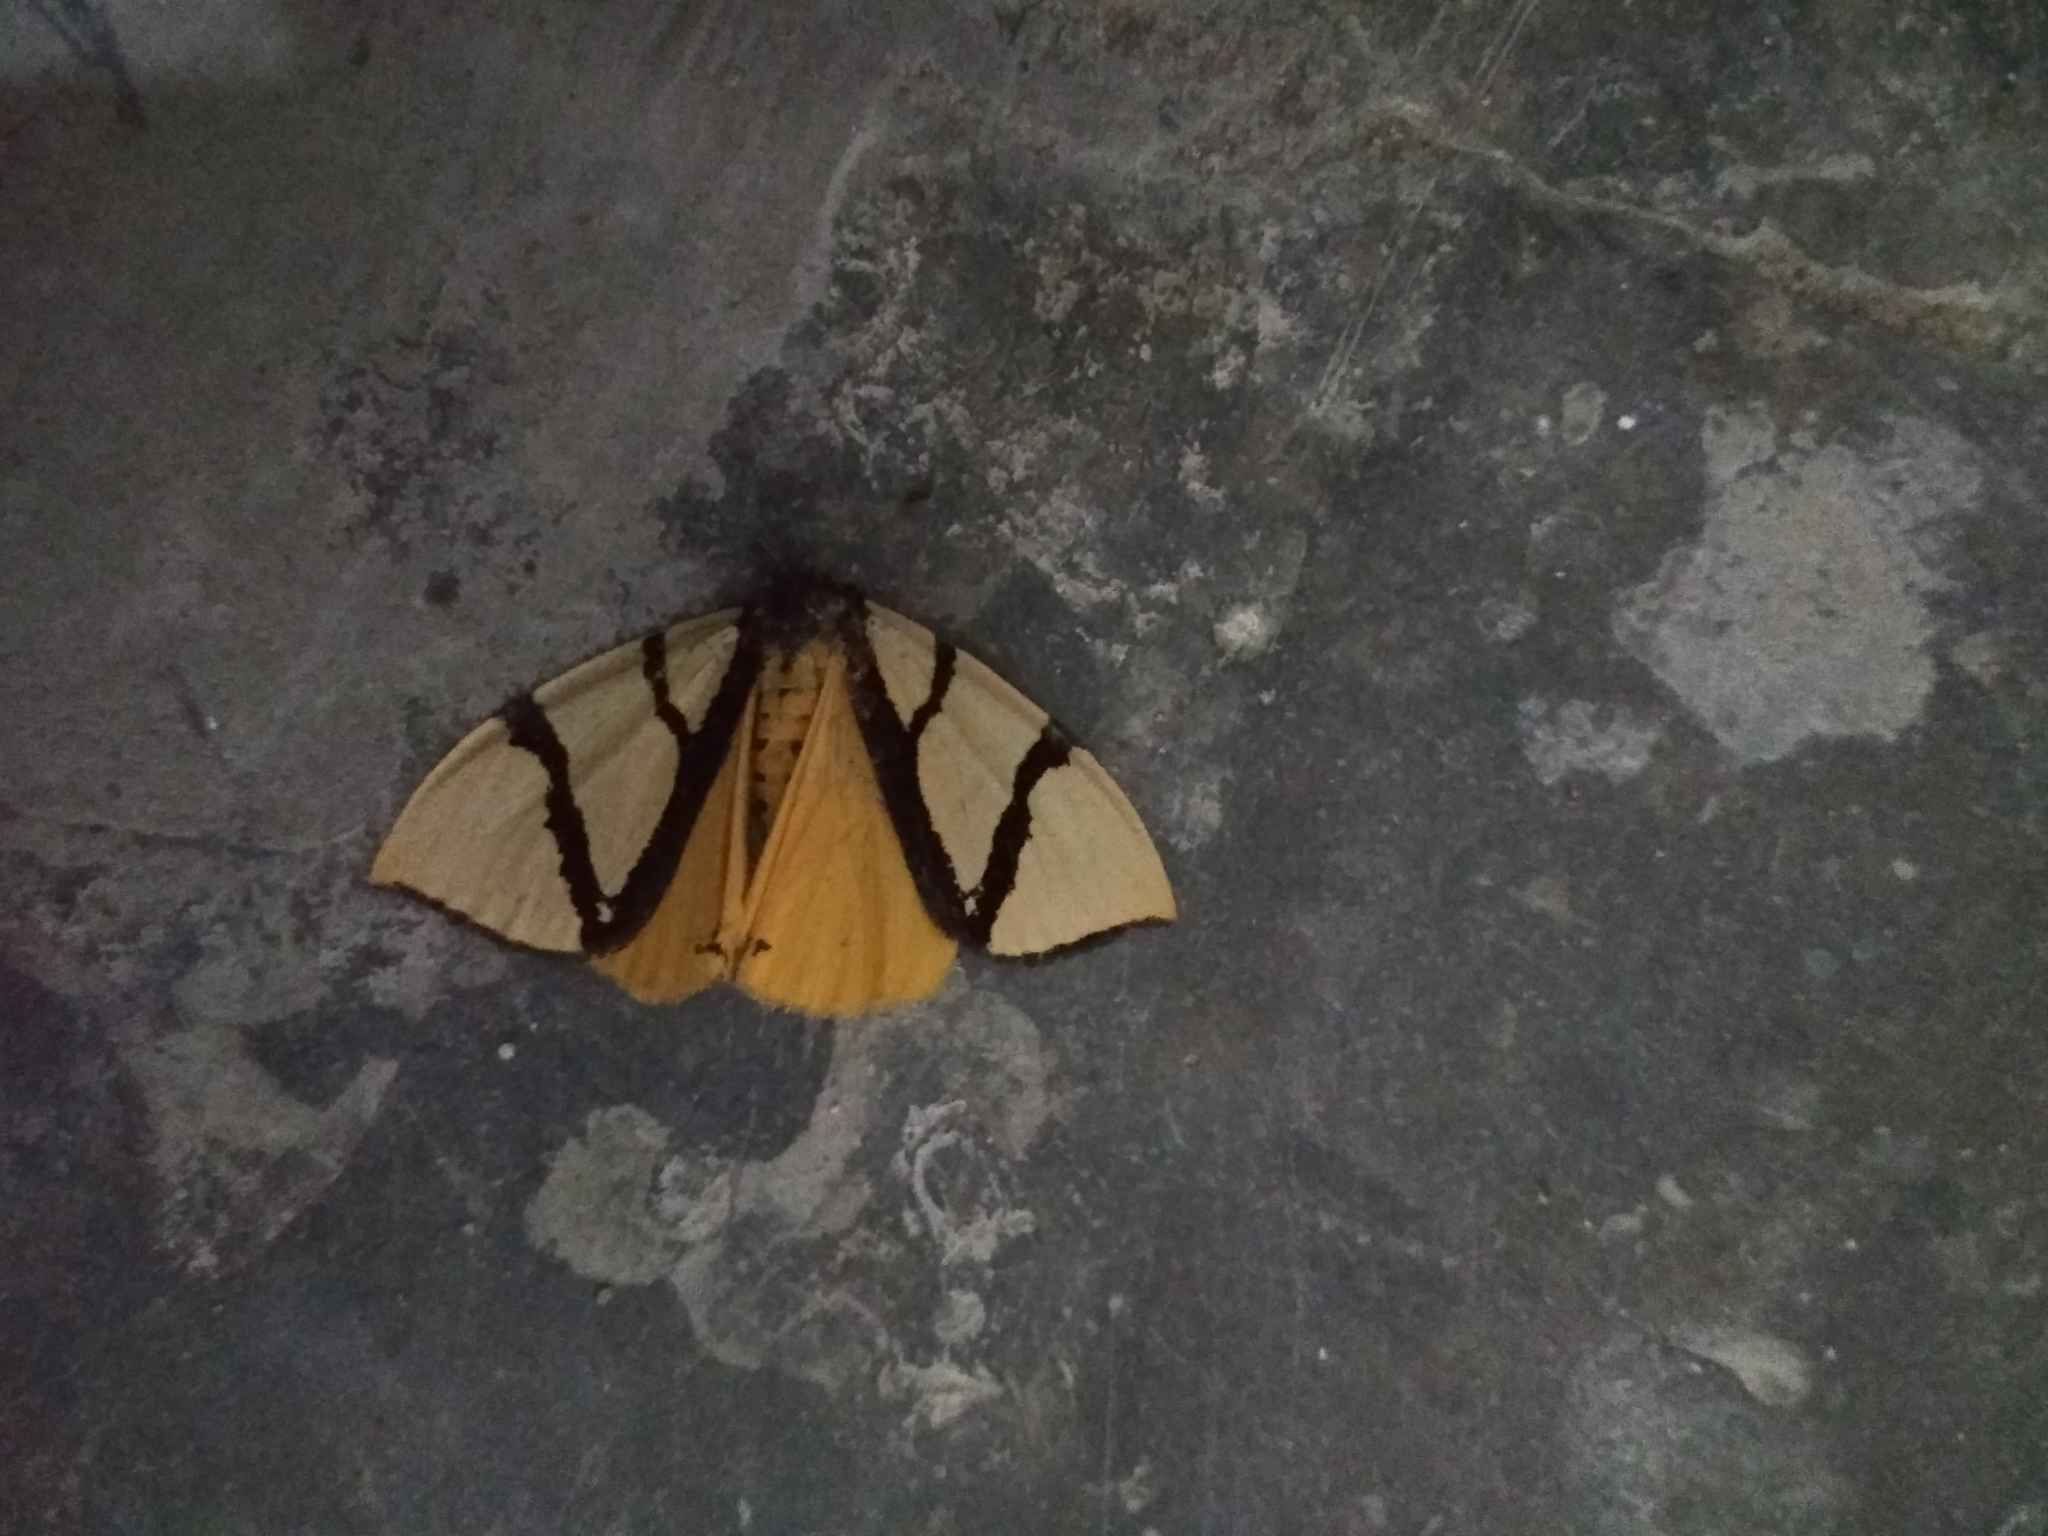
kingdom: Animalia
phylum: Arthropoda
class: Insecta
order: Lepidoptera
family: Erebidae
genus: Numenes
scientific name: Numenes siletti
